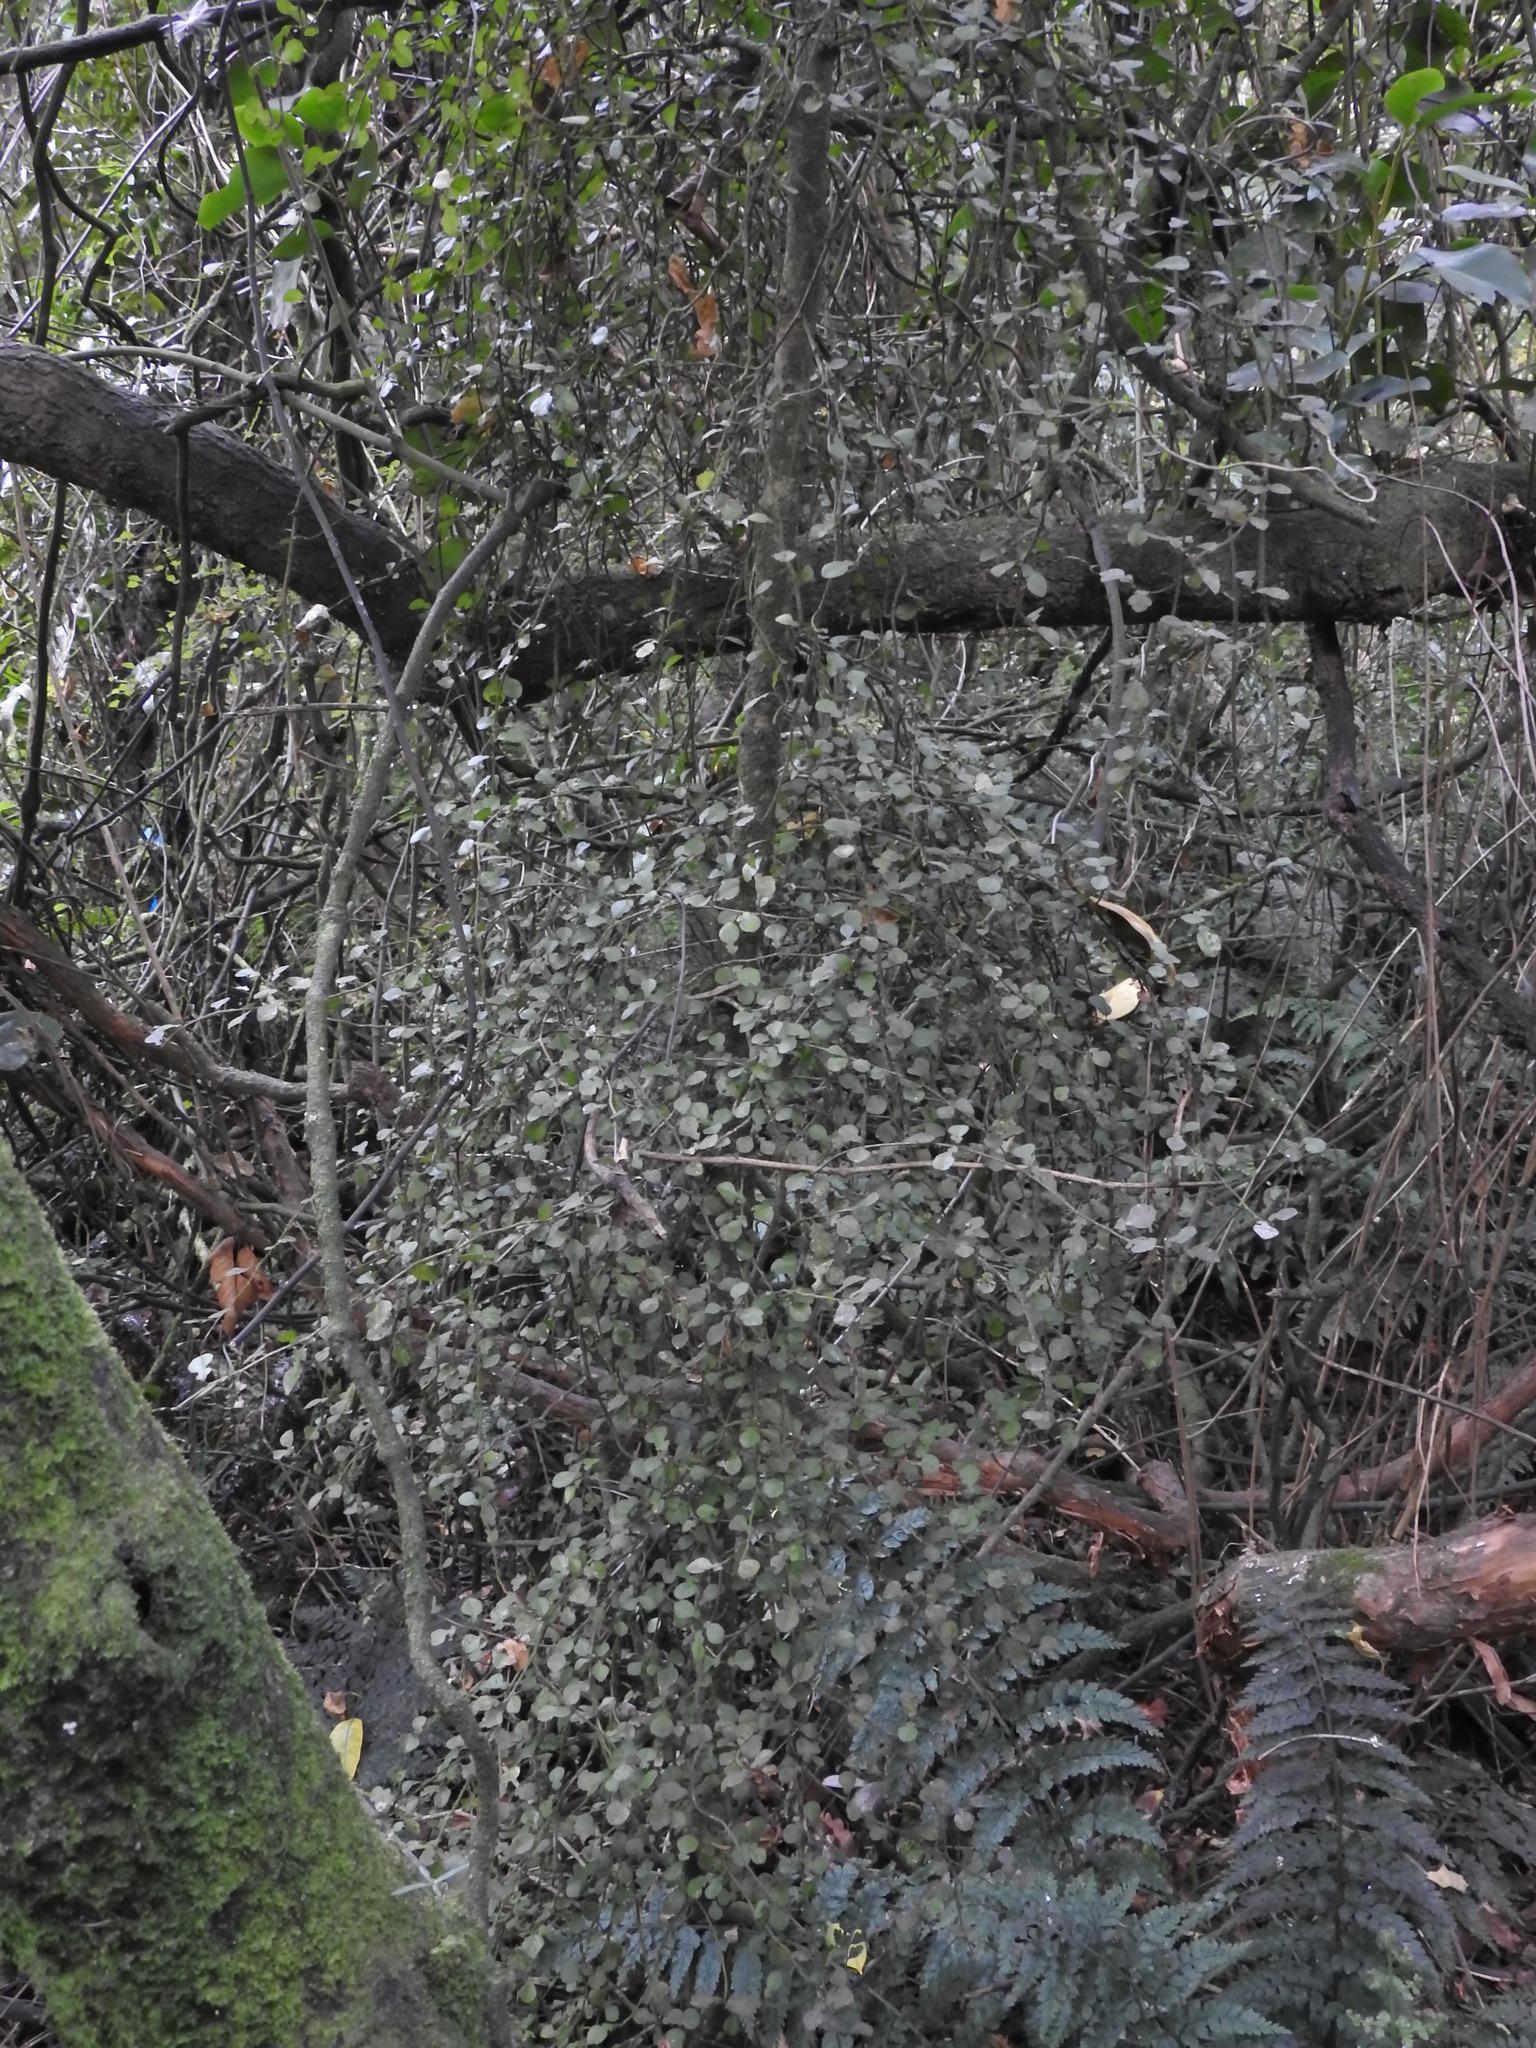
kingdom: Plantae
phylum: Tracheophyta
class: Magnoliopsida
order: Rosales
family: Moraceae
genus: Paratrophis
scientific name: Paratrophis microphylla
